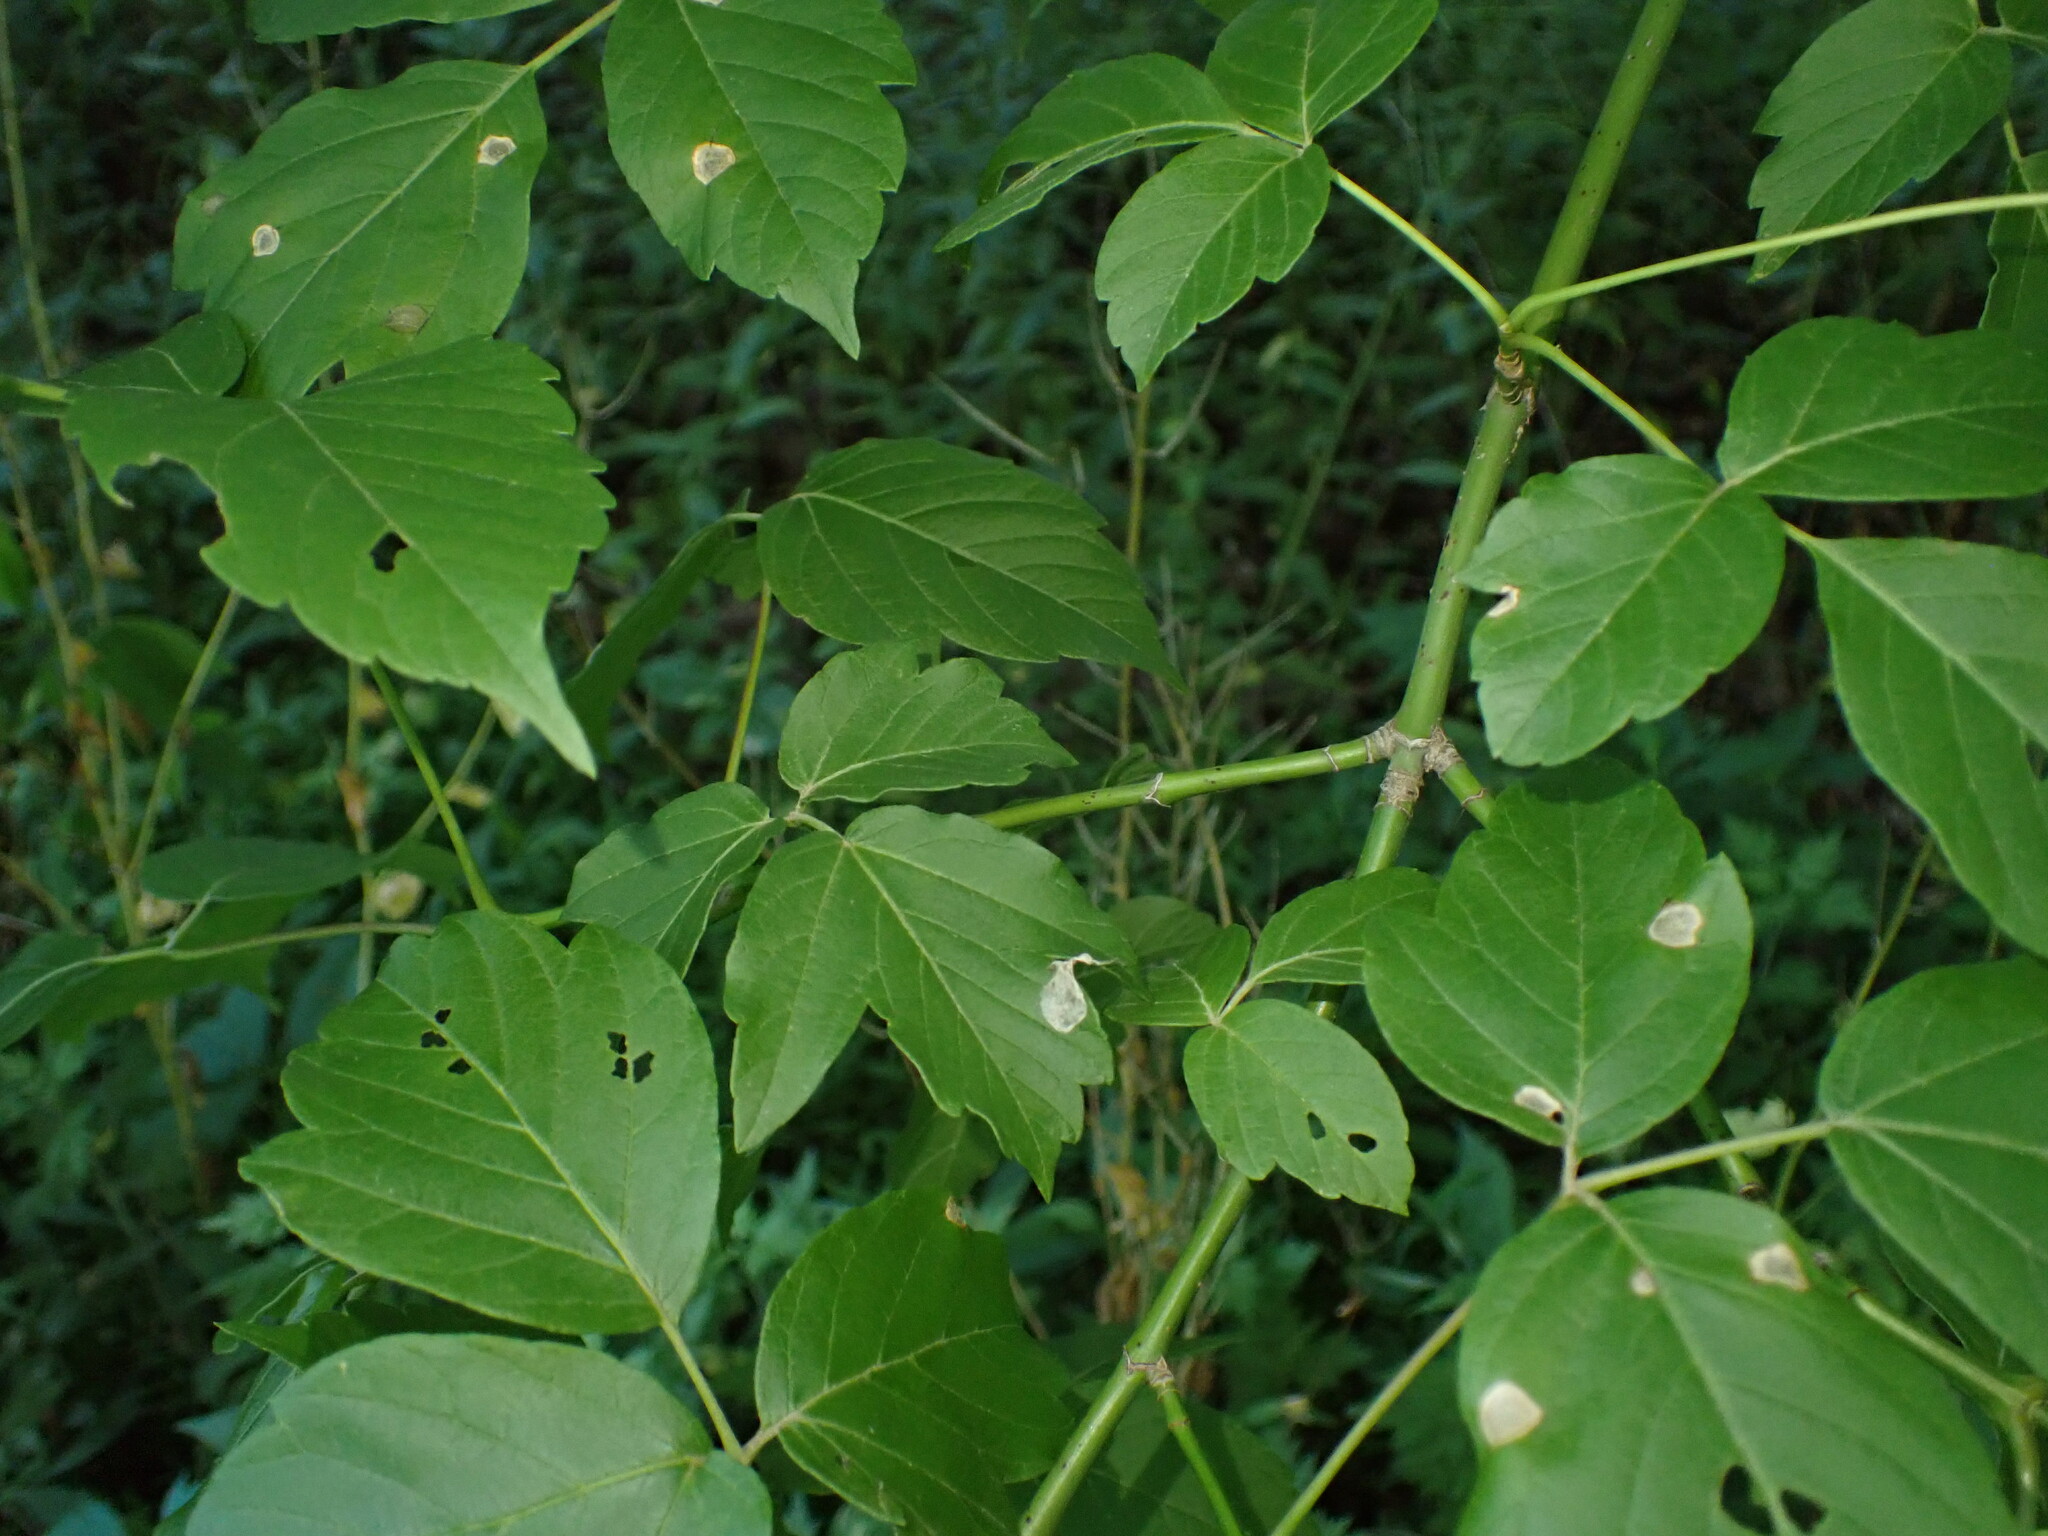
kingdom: Plantae
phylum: Tracheophyta
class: Magnoliopsida
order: Sapindales
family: Sapindaceae
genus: Acer
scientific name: Acer negundo
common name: Ashleaf maple
